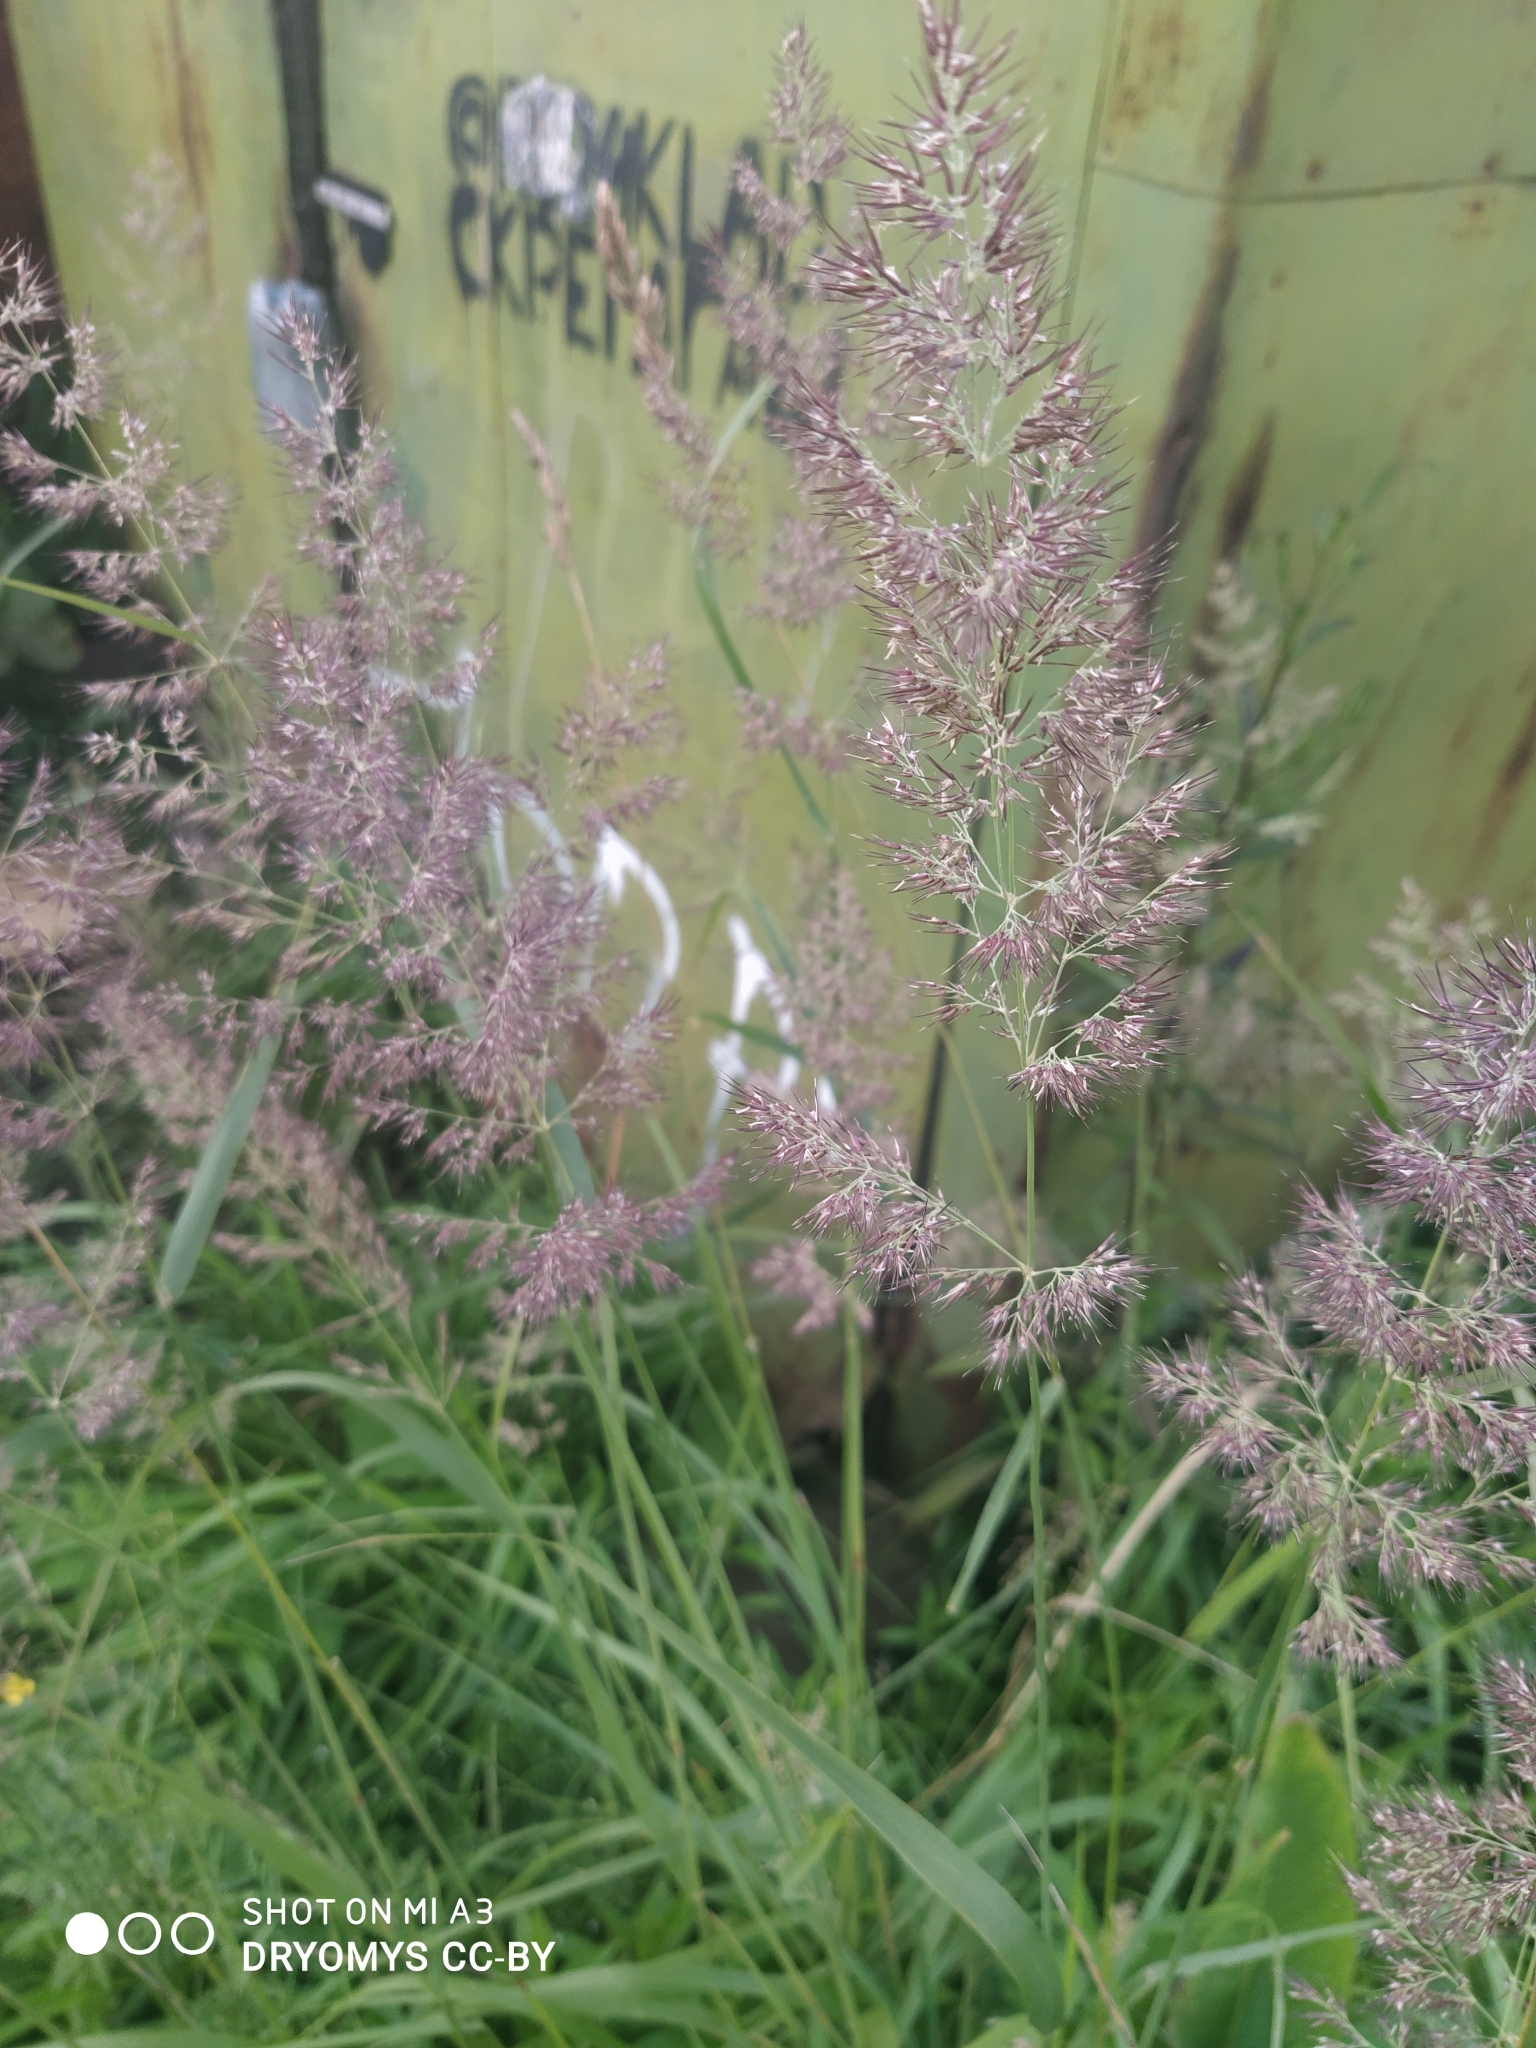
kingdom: Plantae
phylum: Tracheophyta
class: Liliopsida
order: Poales
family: Poaceae
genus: Calamagrostis
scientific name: Calamagrostis epigejos
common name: Wood small-reed
